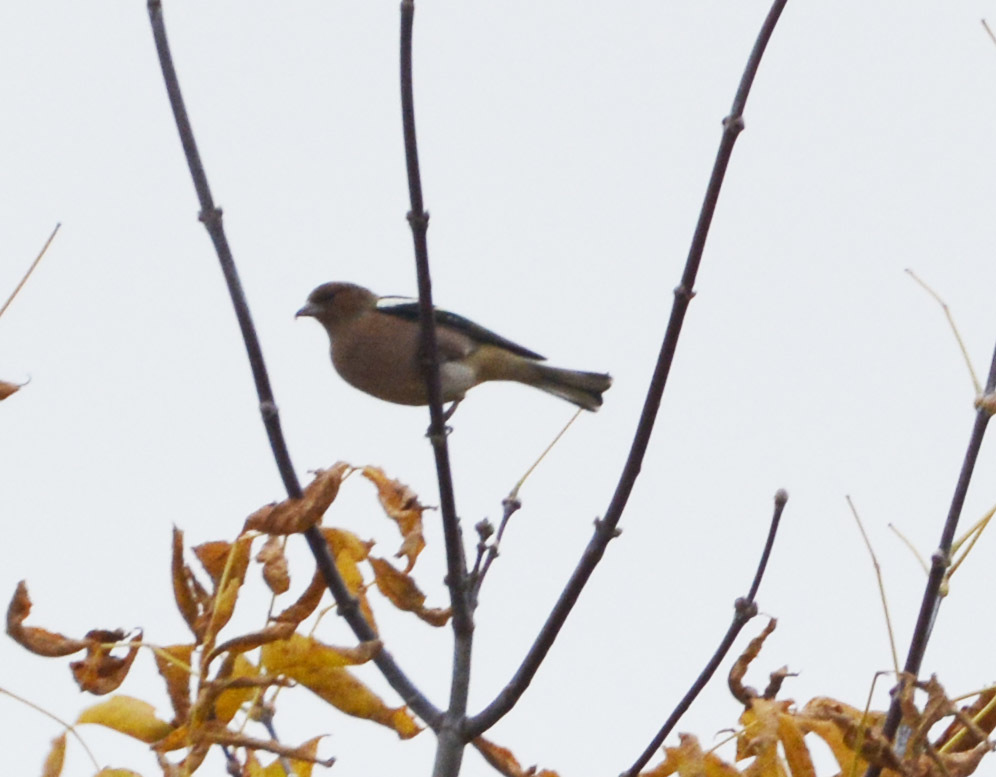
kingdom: Animalia
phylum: Chordata
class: Aves
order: Passeriformes
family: Fringillidae
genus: Fringilla
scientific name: Fringilla coelebs
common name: Common chaffinch
